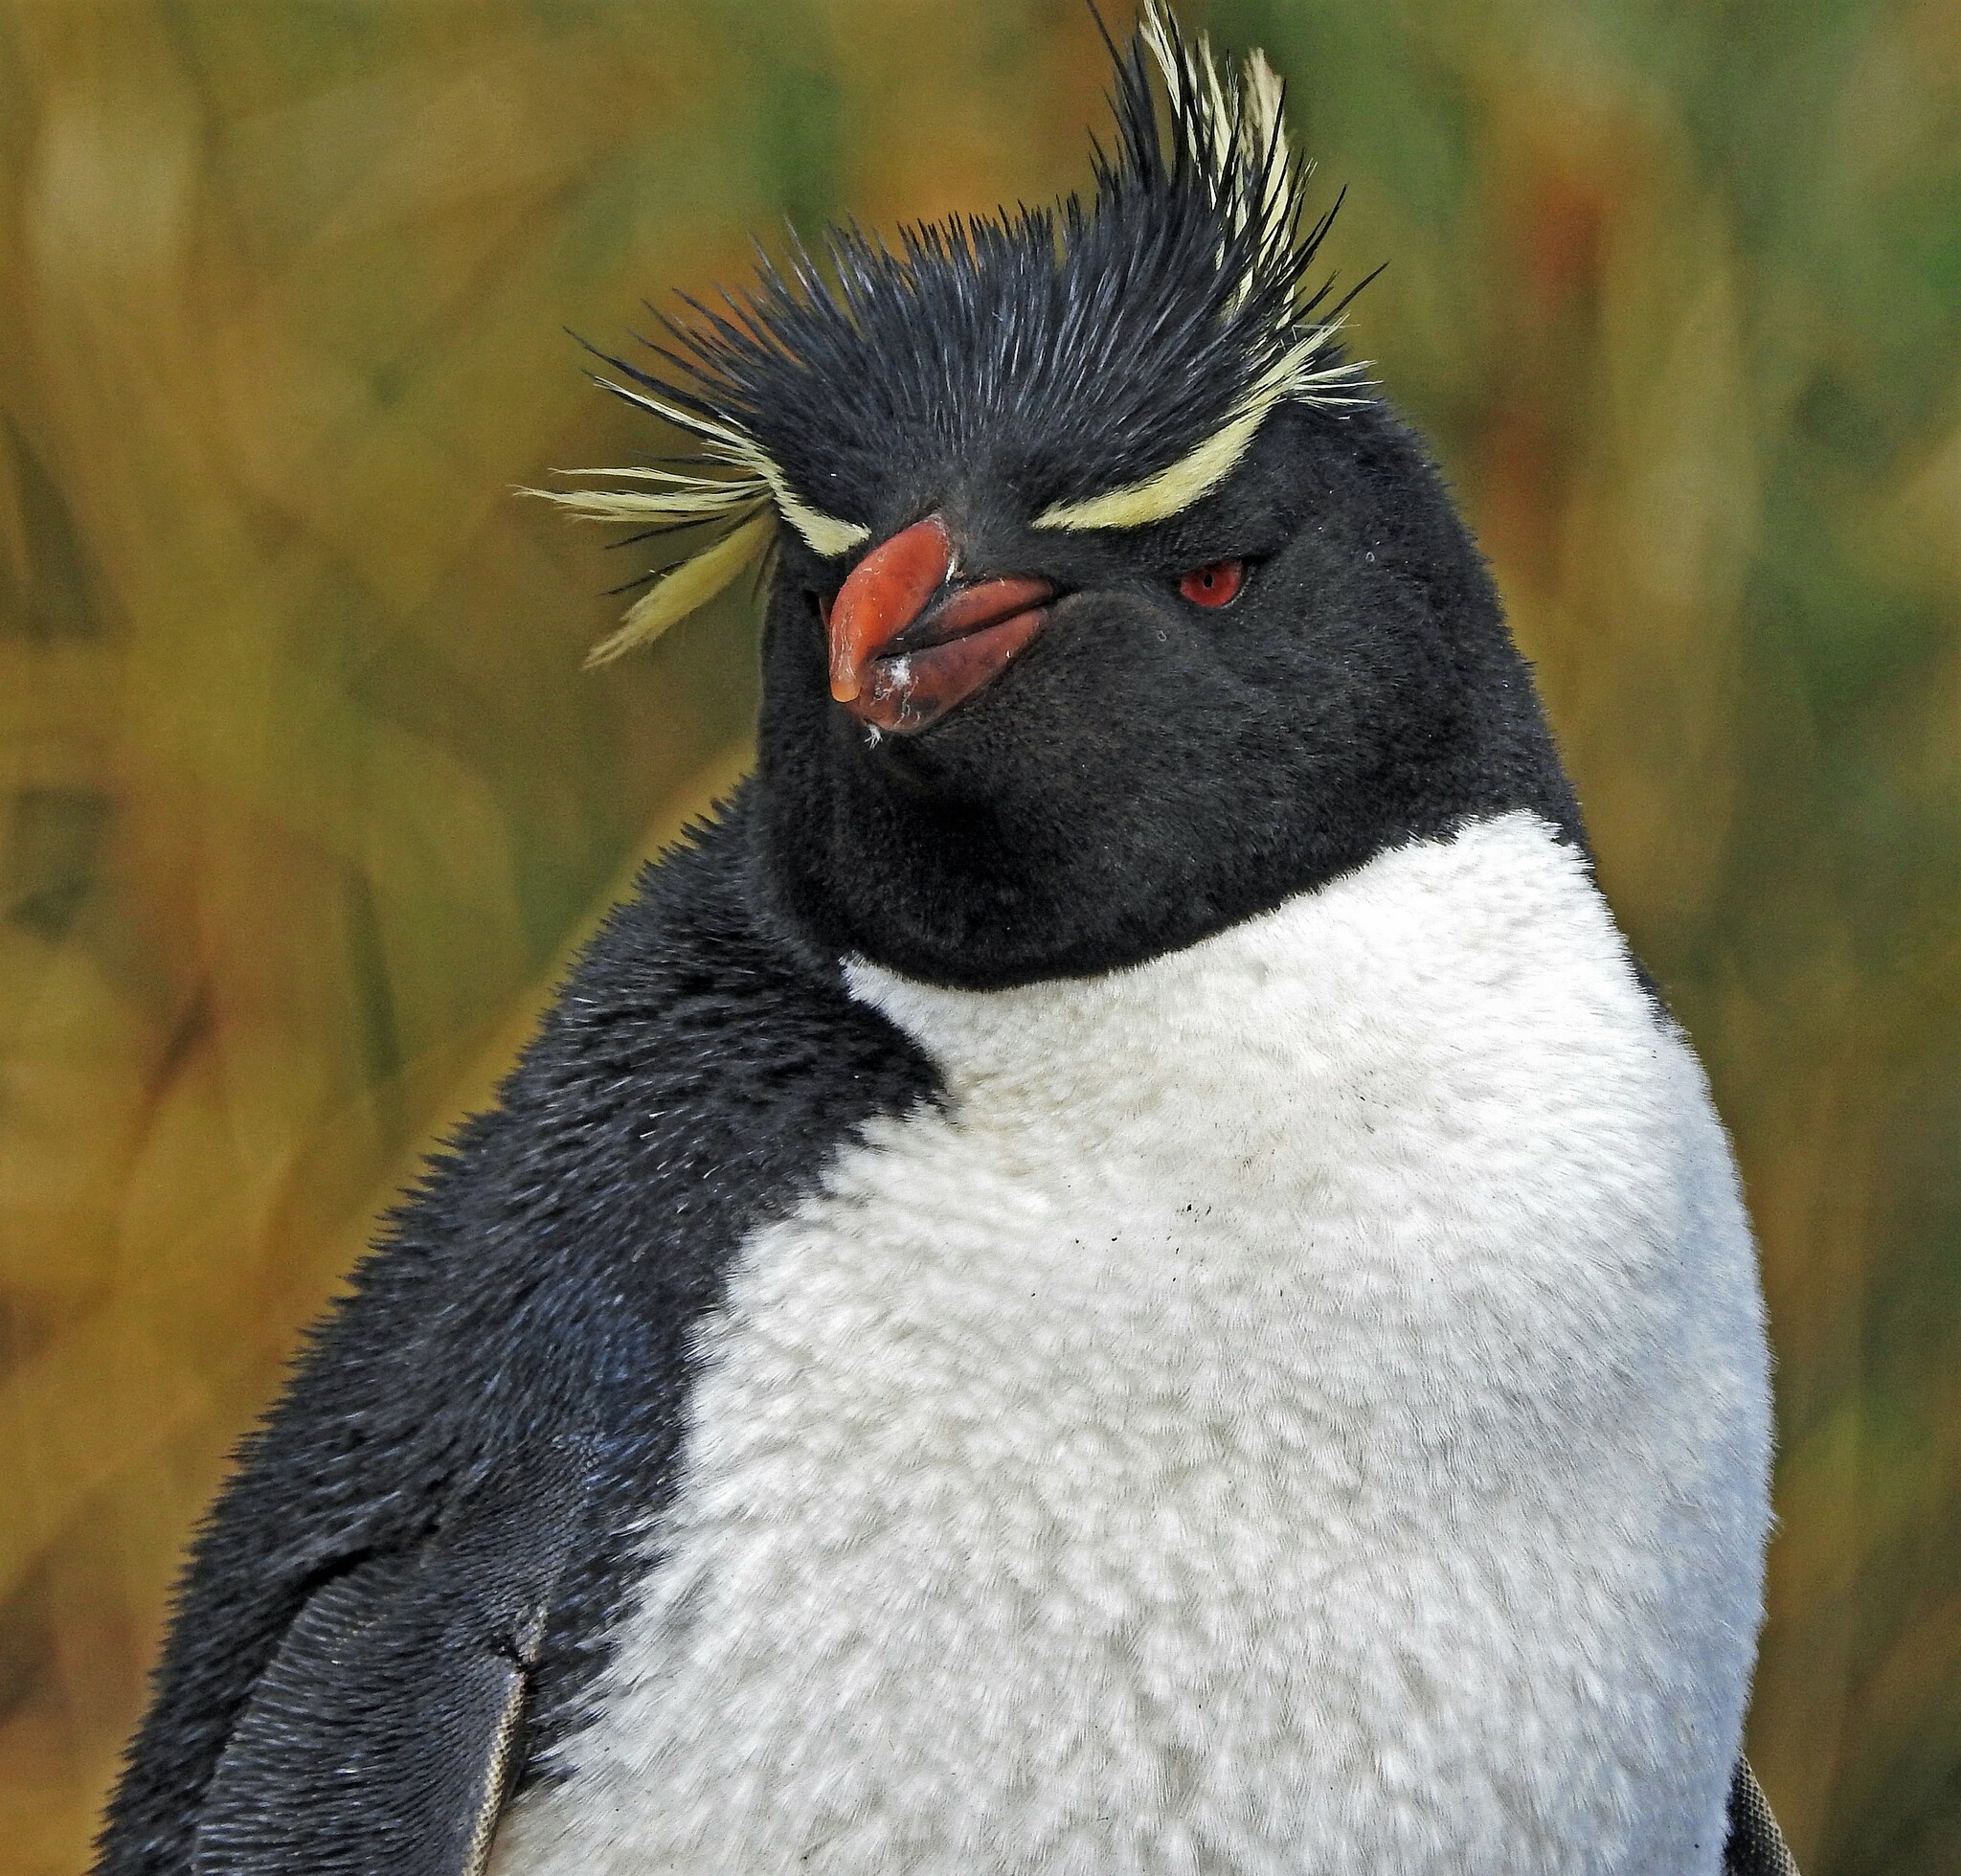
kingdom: Animalia
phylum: Chordata
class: Aves
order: Sphenisciformes
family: Spheniscidae
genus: Eudyptes
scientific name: Eudyptes chrysocome
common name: Southern rockhopper penguin
